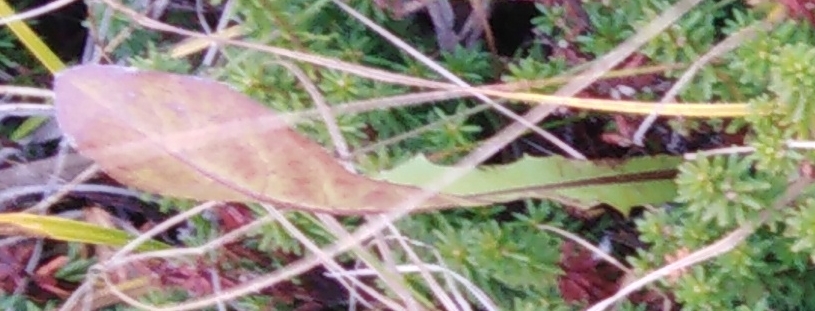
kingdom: Plantae
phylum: Tracheophyta
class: Magnoliopsida
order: Asterales
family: Asteraceae
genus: Taraxacum
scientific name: Taraxacum officinale
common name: Common dandelion
